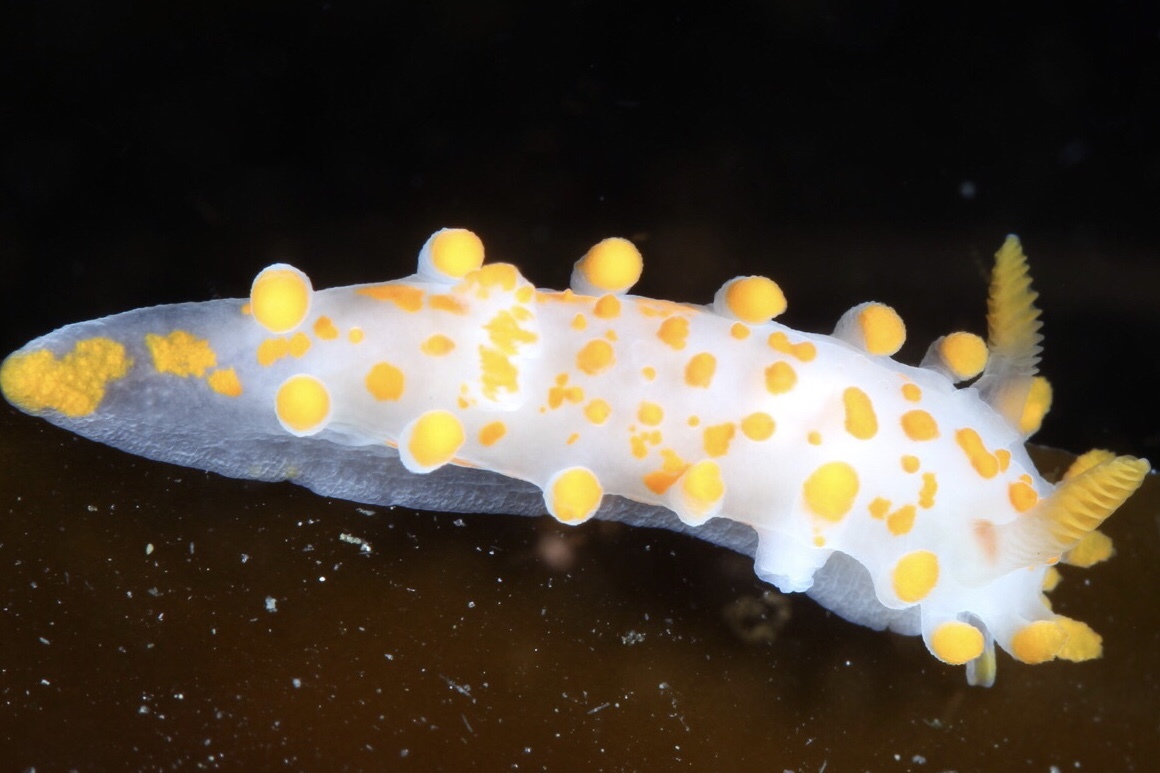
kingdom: Animalia
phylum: Mollusca
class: Gastropoda
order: Nudibranchia
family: Polyceridae
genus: Limacia
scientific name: Limacia clavigera
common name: Orange-clubbed sea slug
